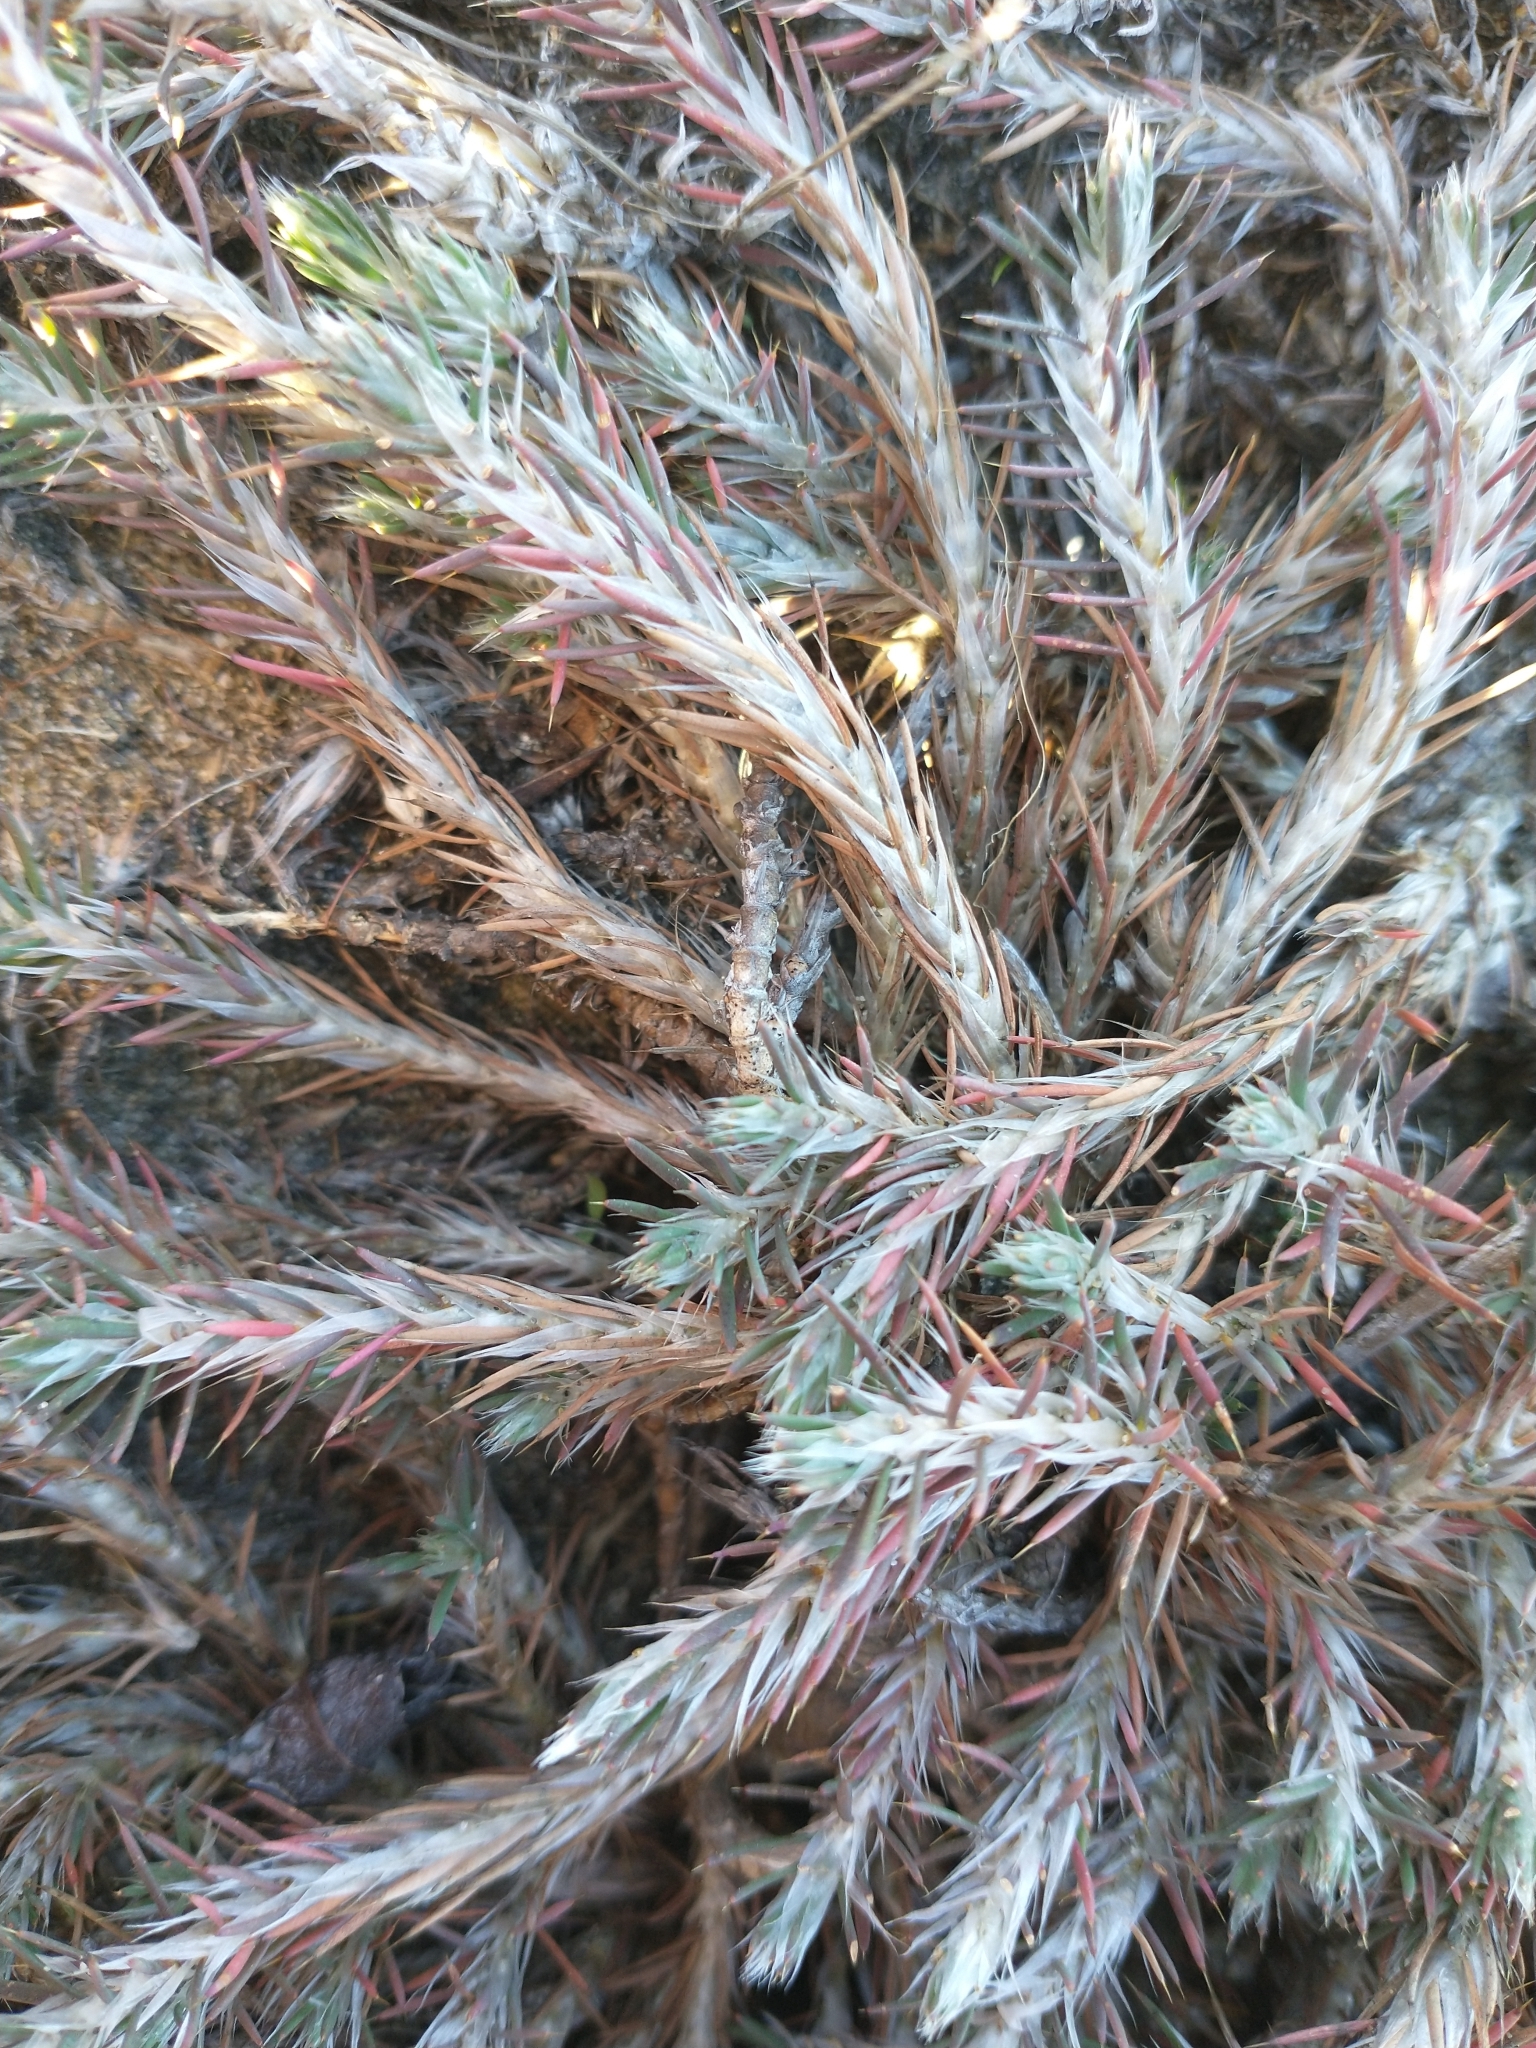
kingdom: Plantae
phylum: Tracheophyta
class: Magnoliopsida
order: Caryophyllales
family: Caryophyllaceae
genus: Cardionema
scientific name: Cardionema ramosissima
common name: Sandcarpet
